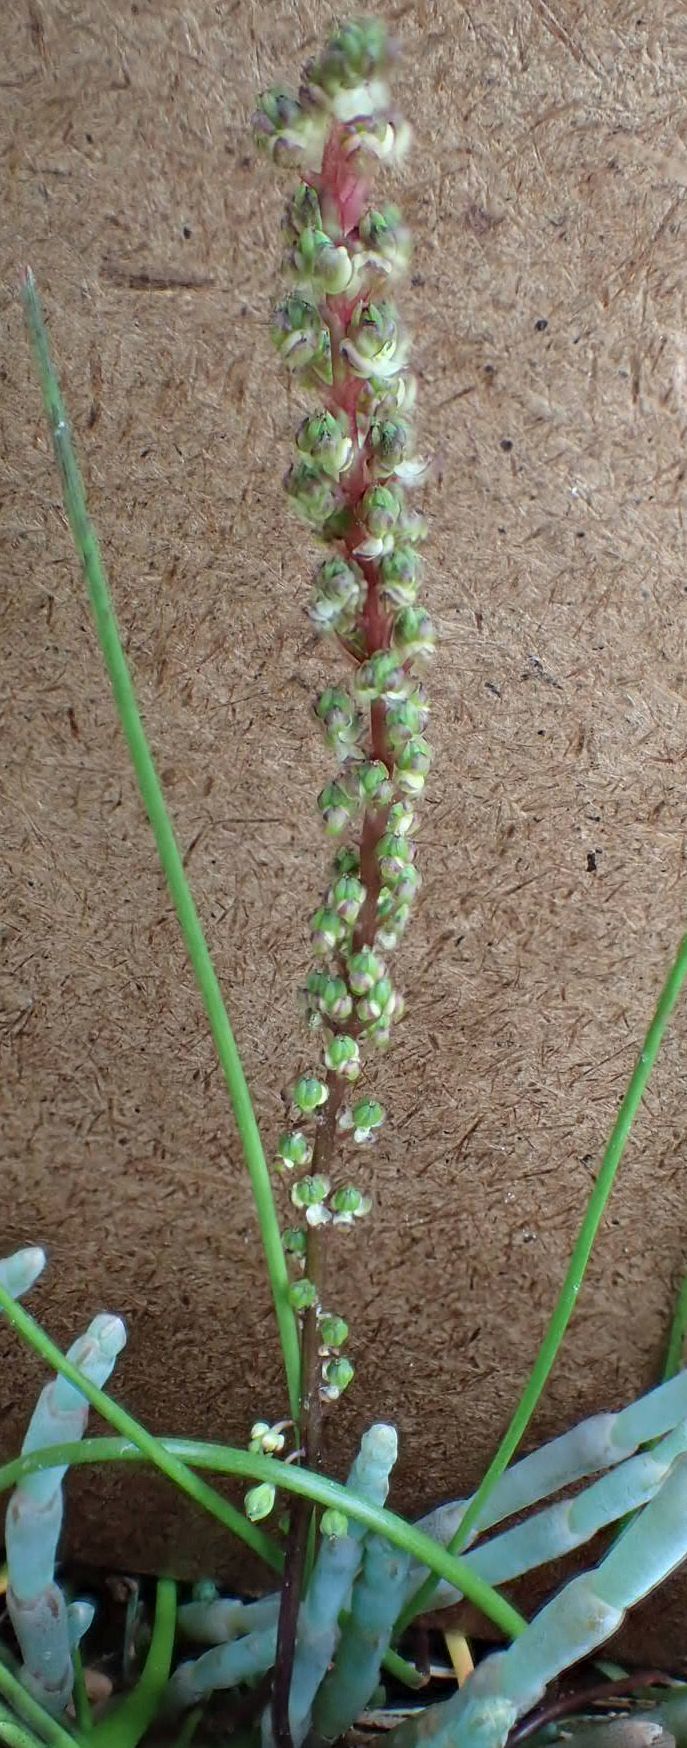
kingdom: Plantae
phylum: Tracheophyta
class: Liliopsida
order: Alismatales
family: Juncaginaceae
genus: Triglochin
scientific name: Triglochin striata
